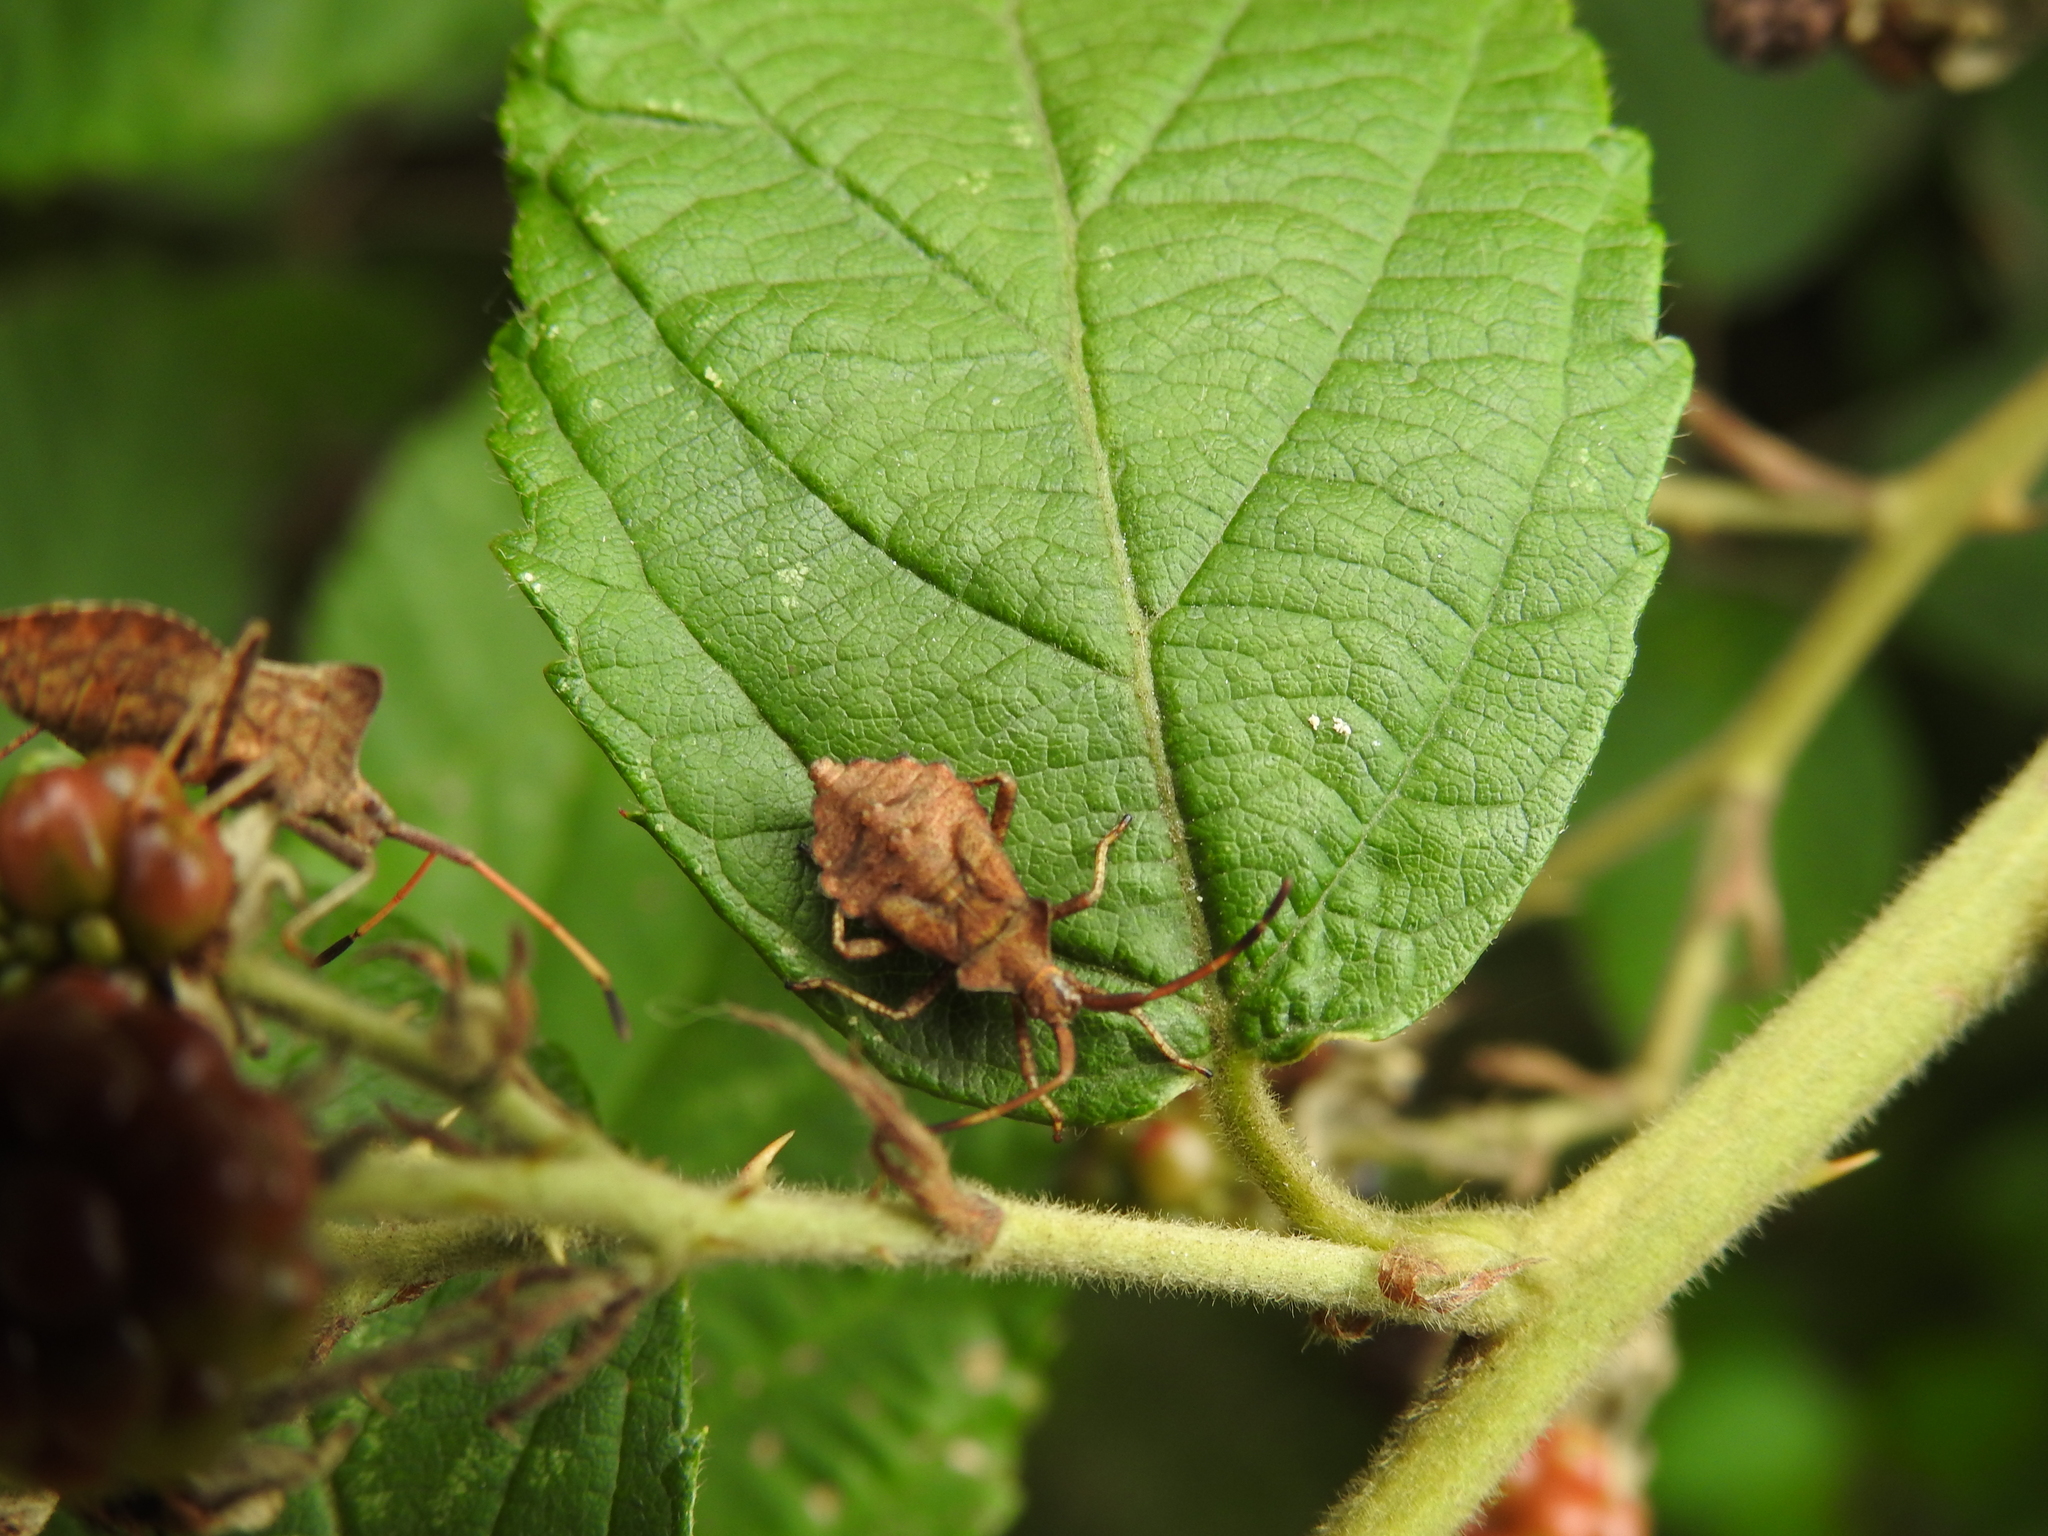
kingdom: Animalia
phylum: Arthropoda
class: Insecta
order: Hemiptera
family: Coreidae
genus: Coreus
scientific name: Coreus marginatus
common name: Dock bug
